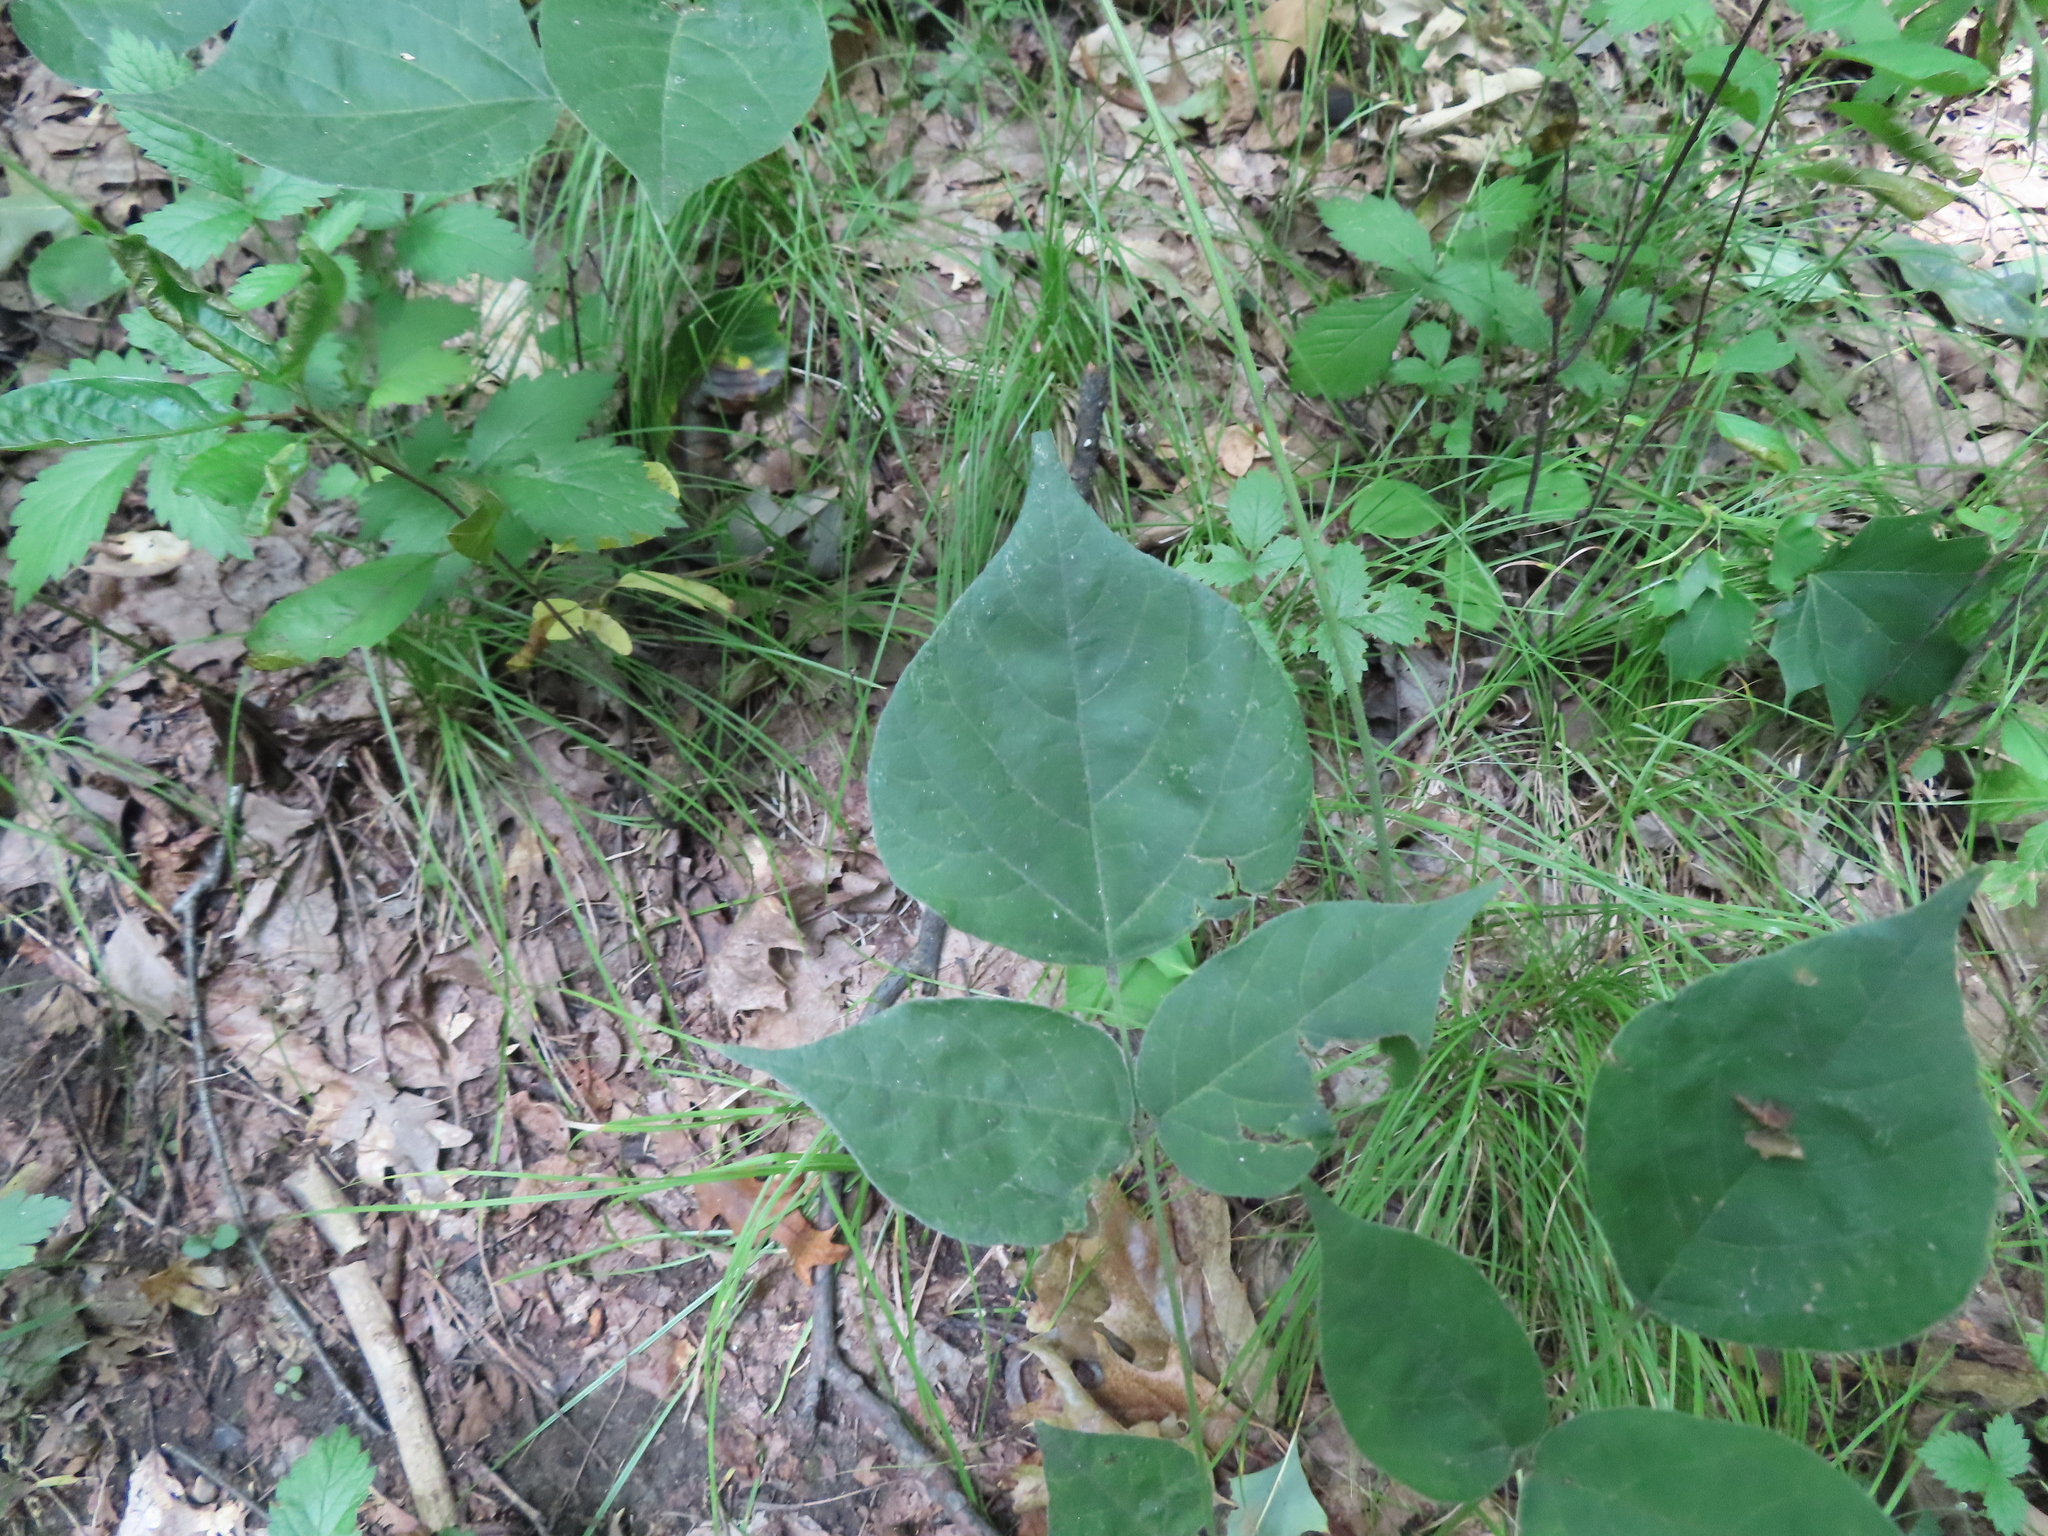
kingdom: Plantae
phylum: Tracheophyta
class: Magnoliopsida
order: Fabales
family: Fabaceae
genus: Hylodesmum
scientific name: Hylodesmum glutinosum
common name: Clustered-leaved tick-trefoil
